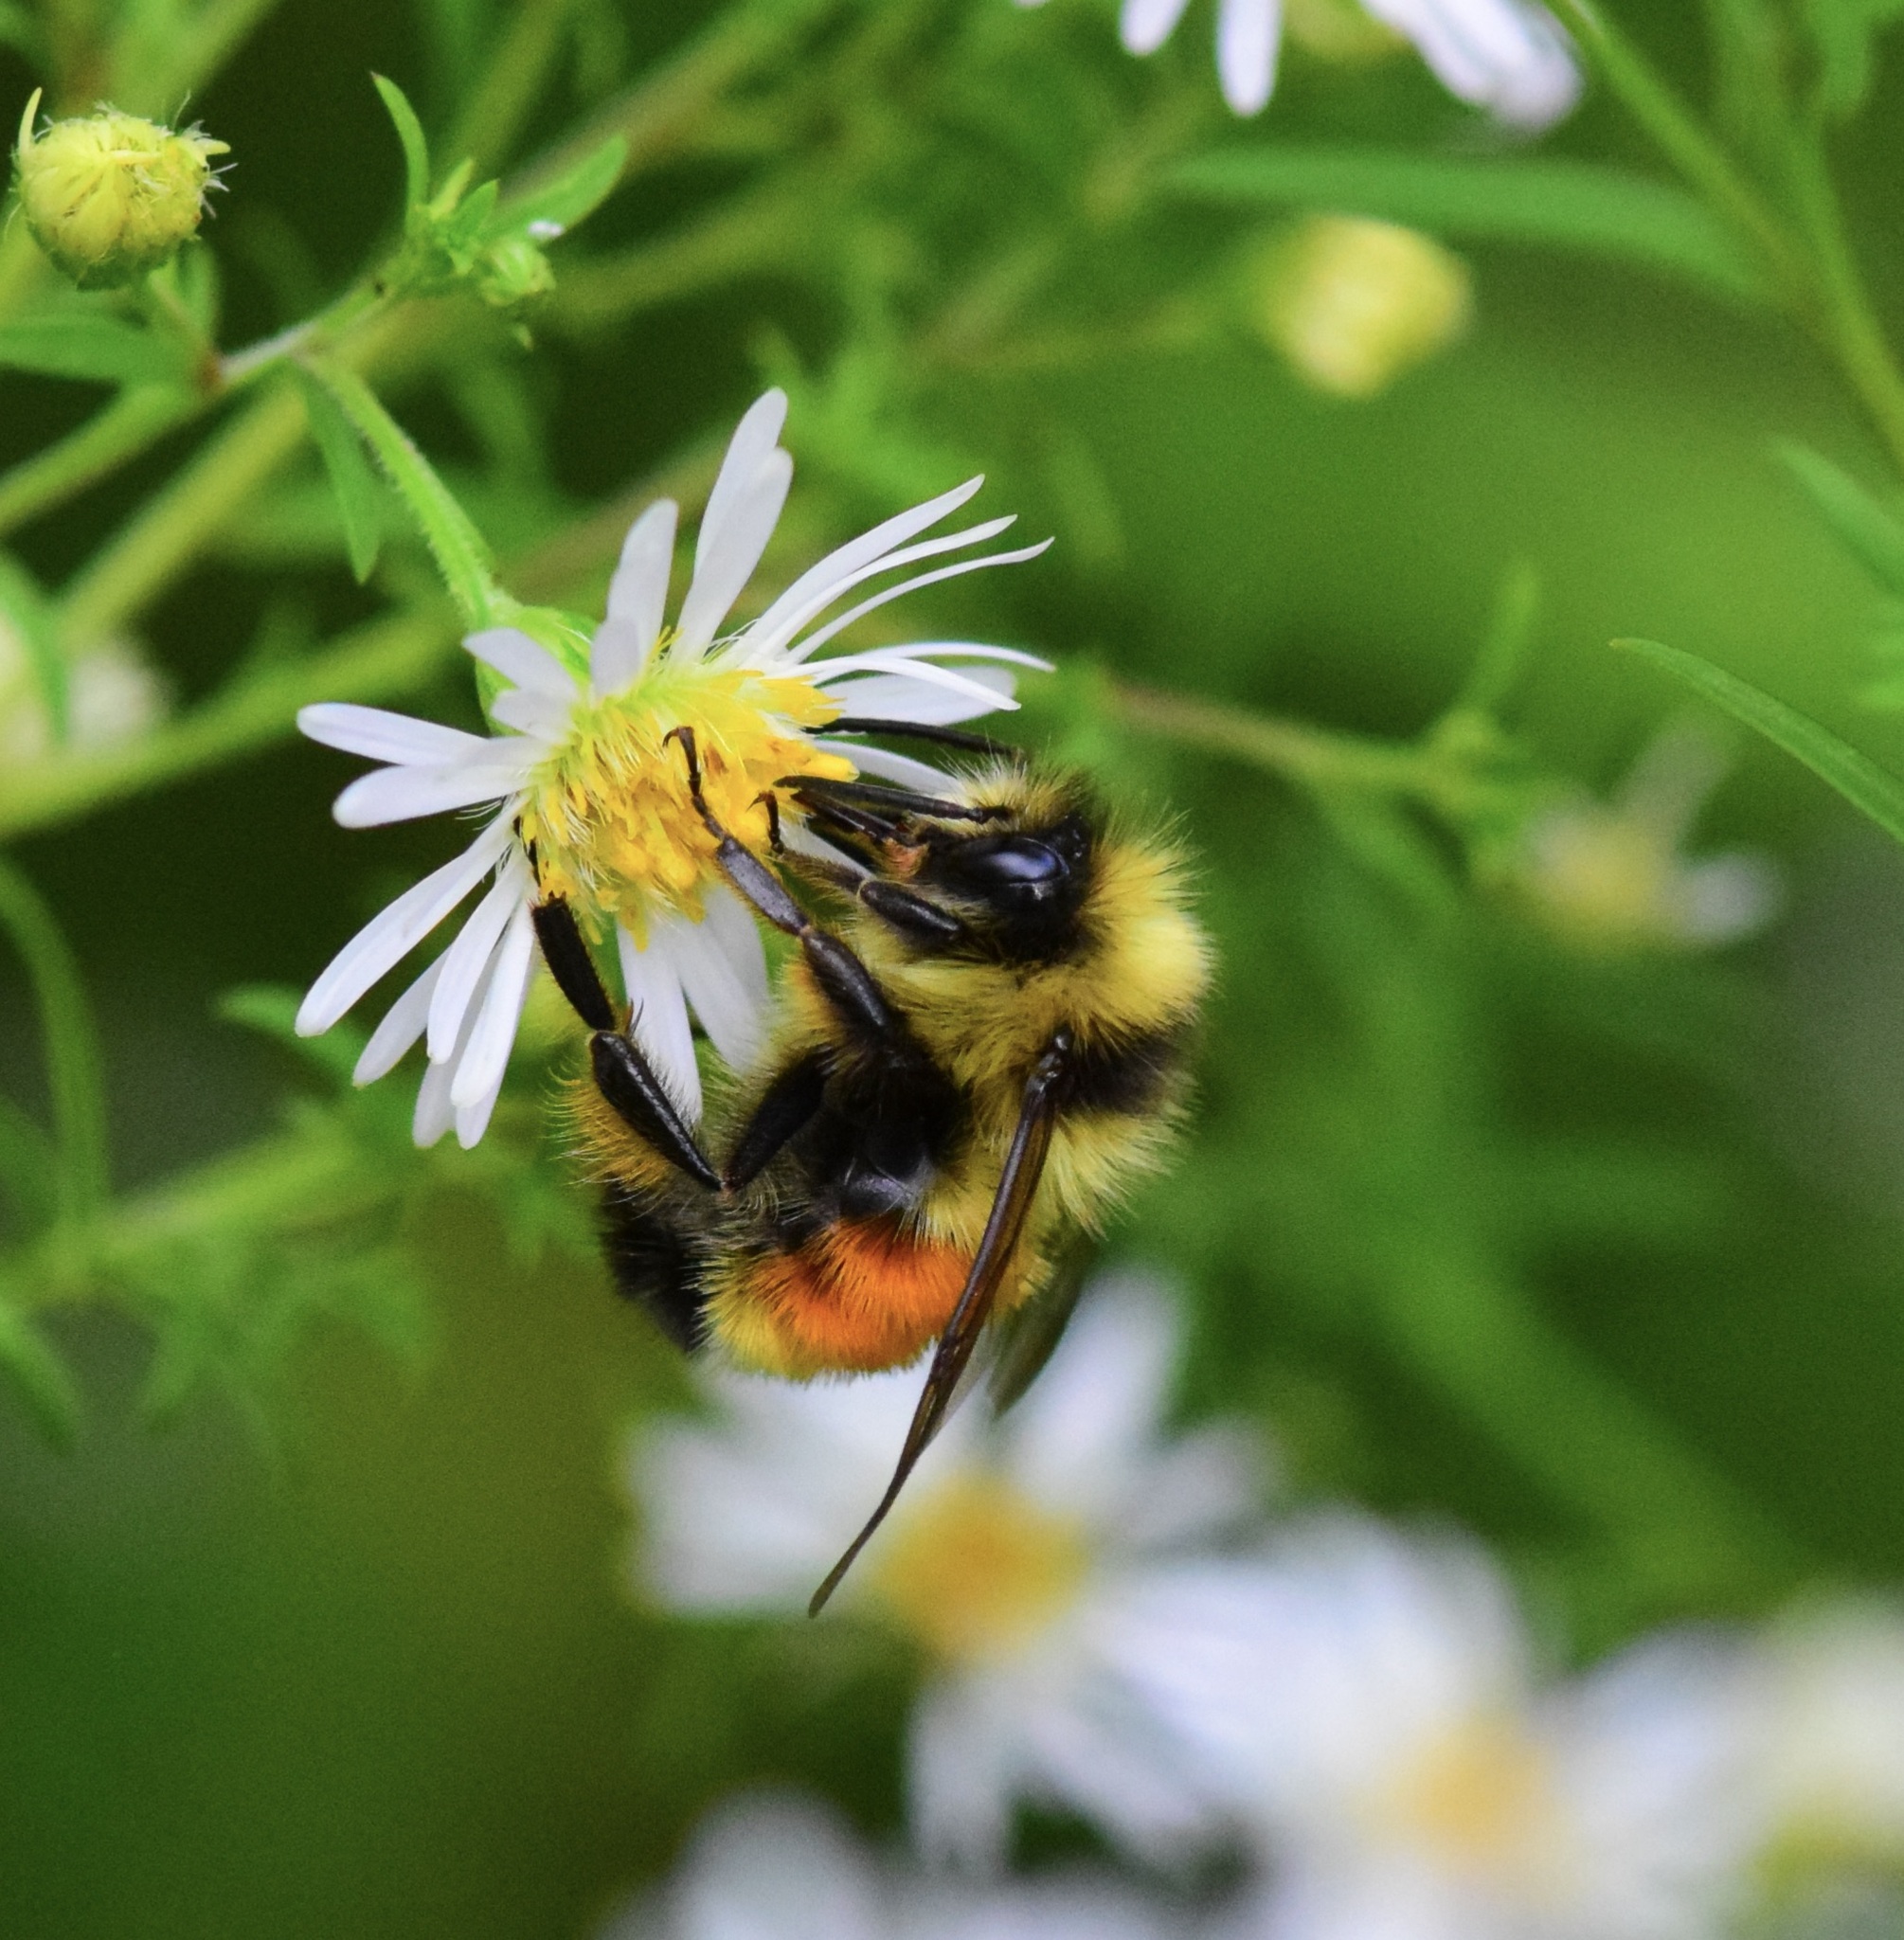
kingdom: Animalia
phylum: Arthropoda
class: Insecta
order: Hymenoptera
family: Apidae
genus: Bombus
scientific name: Bombus ternarius
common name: Tri-colored bumble bee
